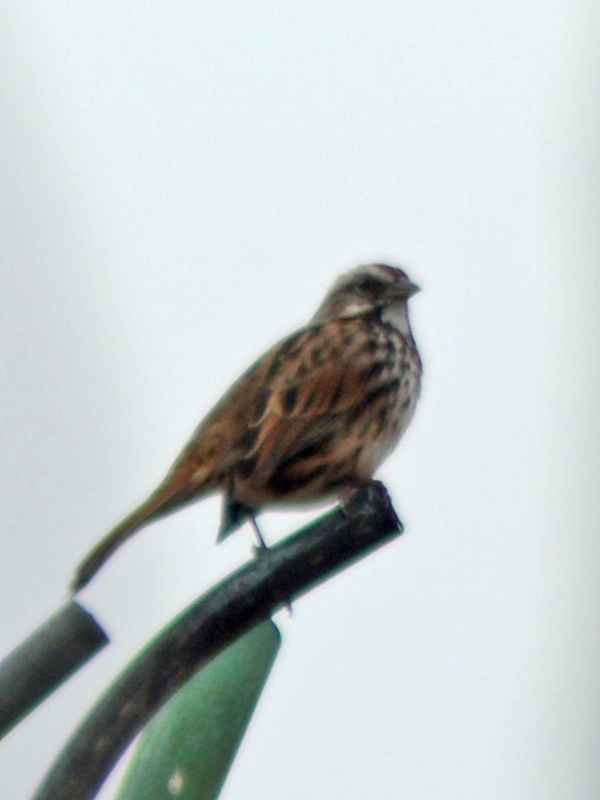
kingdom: Animalia
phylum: Chordata
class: Aves
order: Passeriformes
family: Passerellidae
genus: Melospiza
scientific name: Melospiza melodia
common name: Song sparrow
